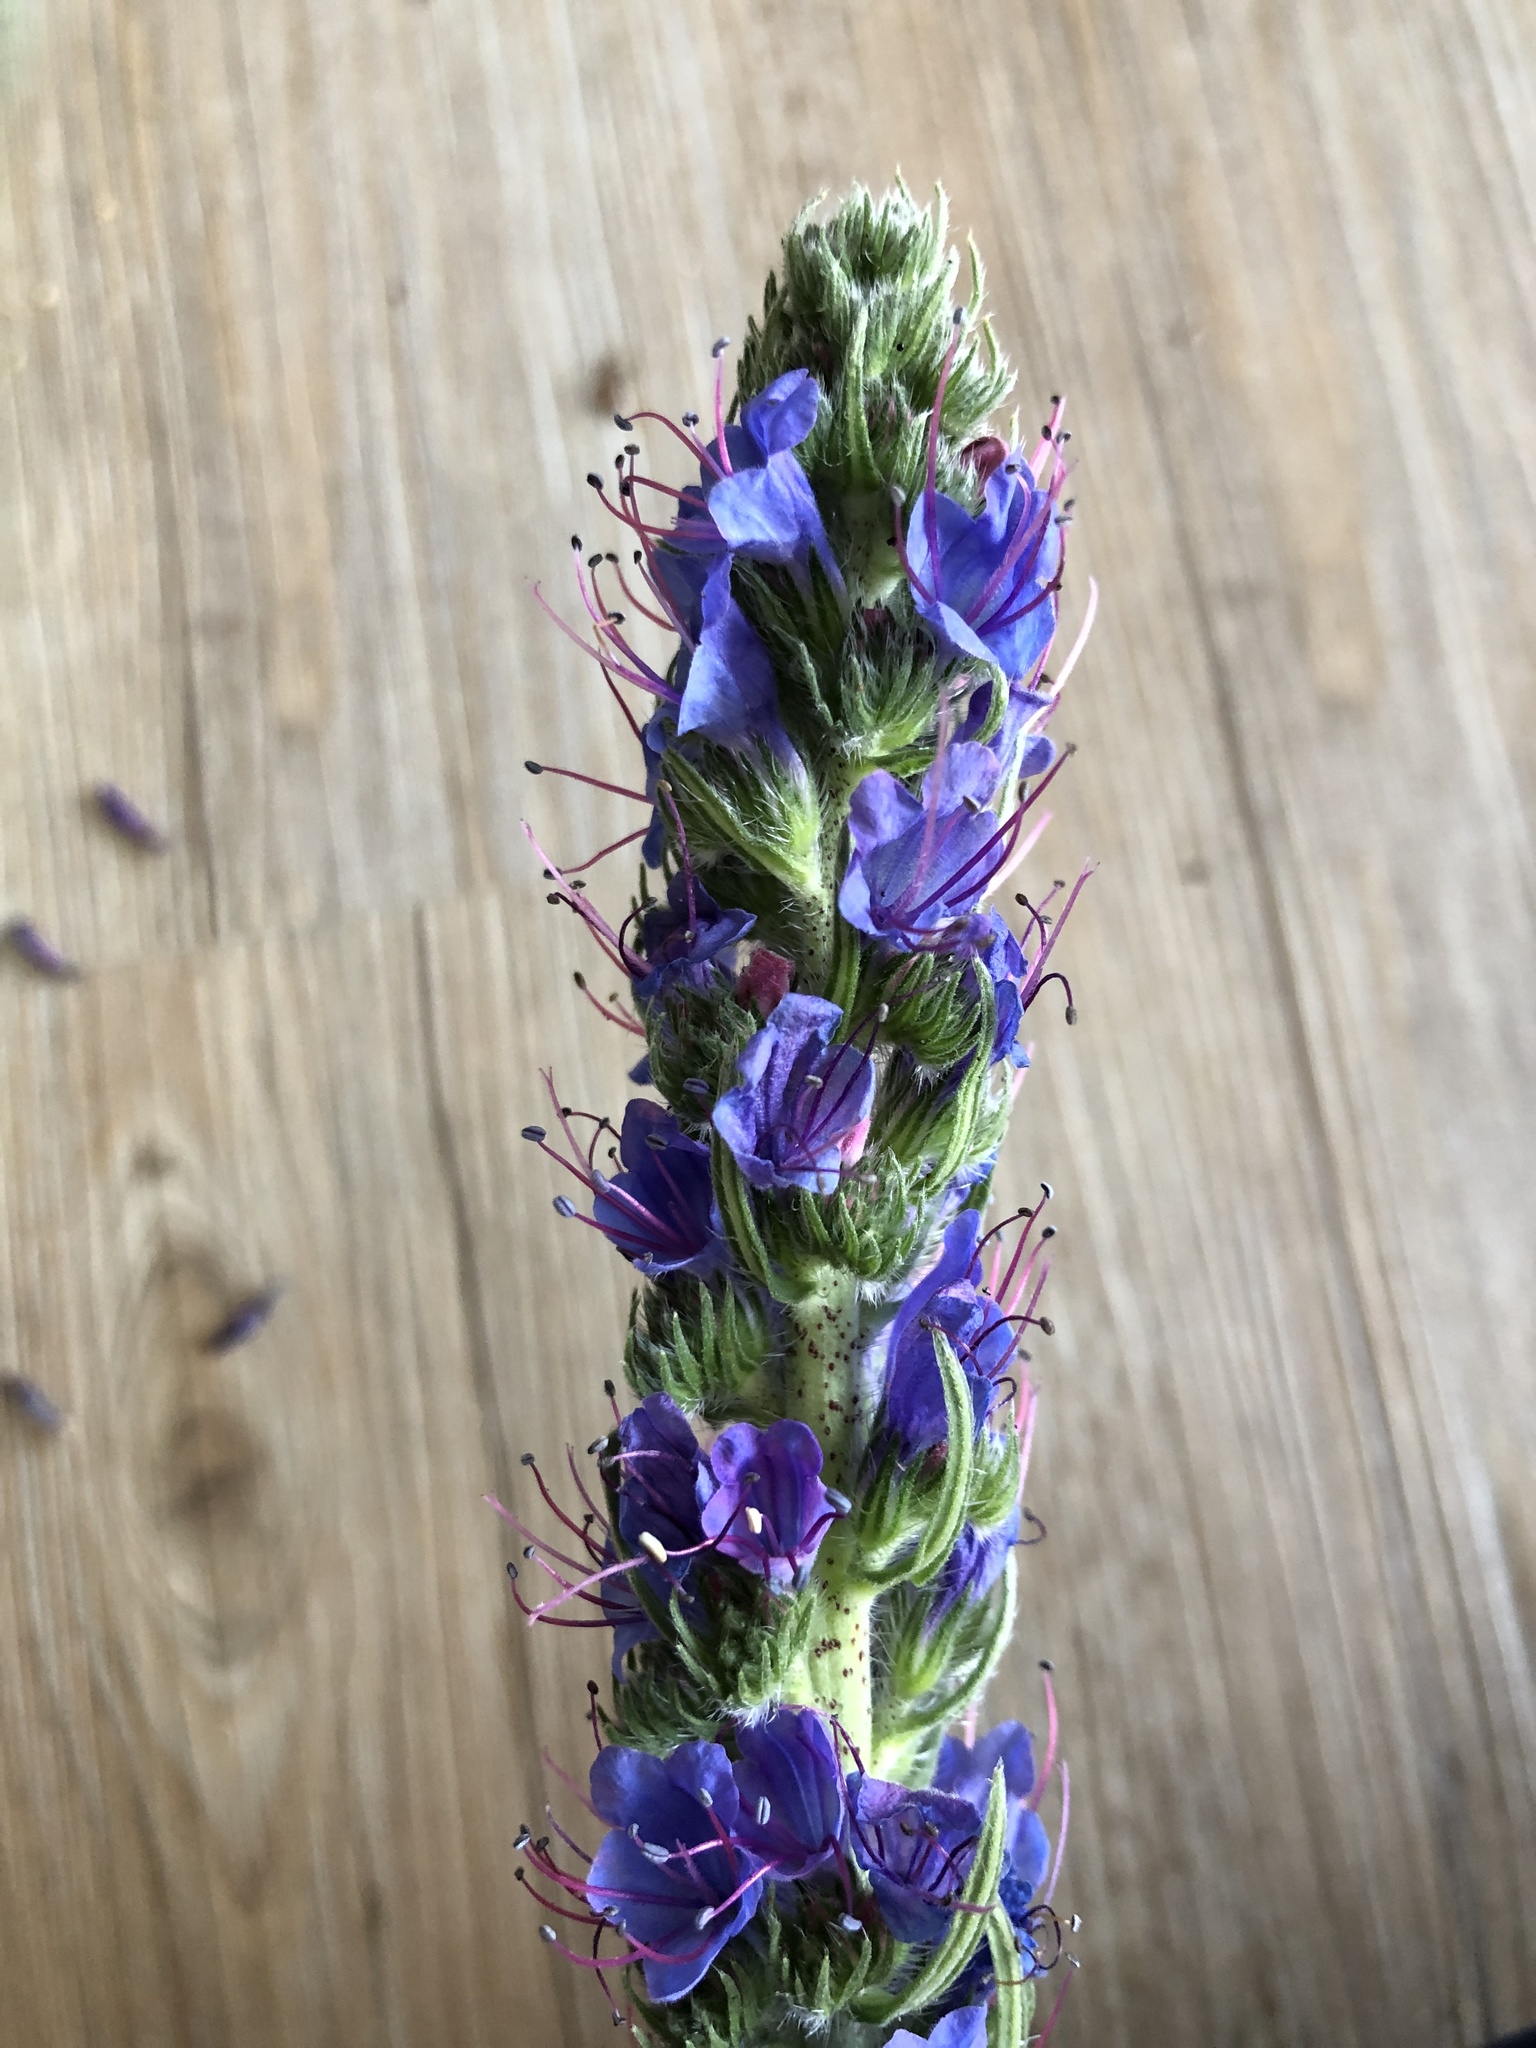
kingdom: Plantae
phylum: Tracheophyta
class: Magnoliopsida
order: Boraginales
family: Boraginaceae
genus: Echium
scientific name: Echium vulgare
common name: Common viper's bugloss
